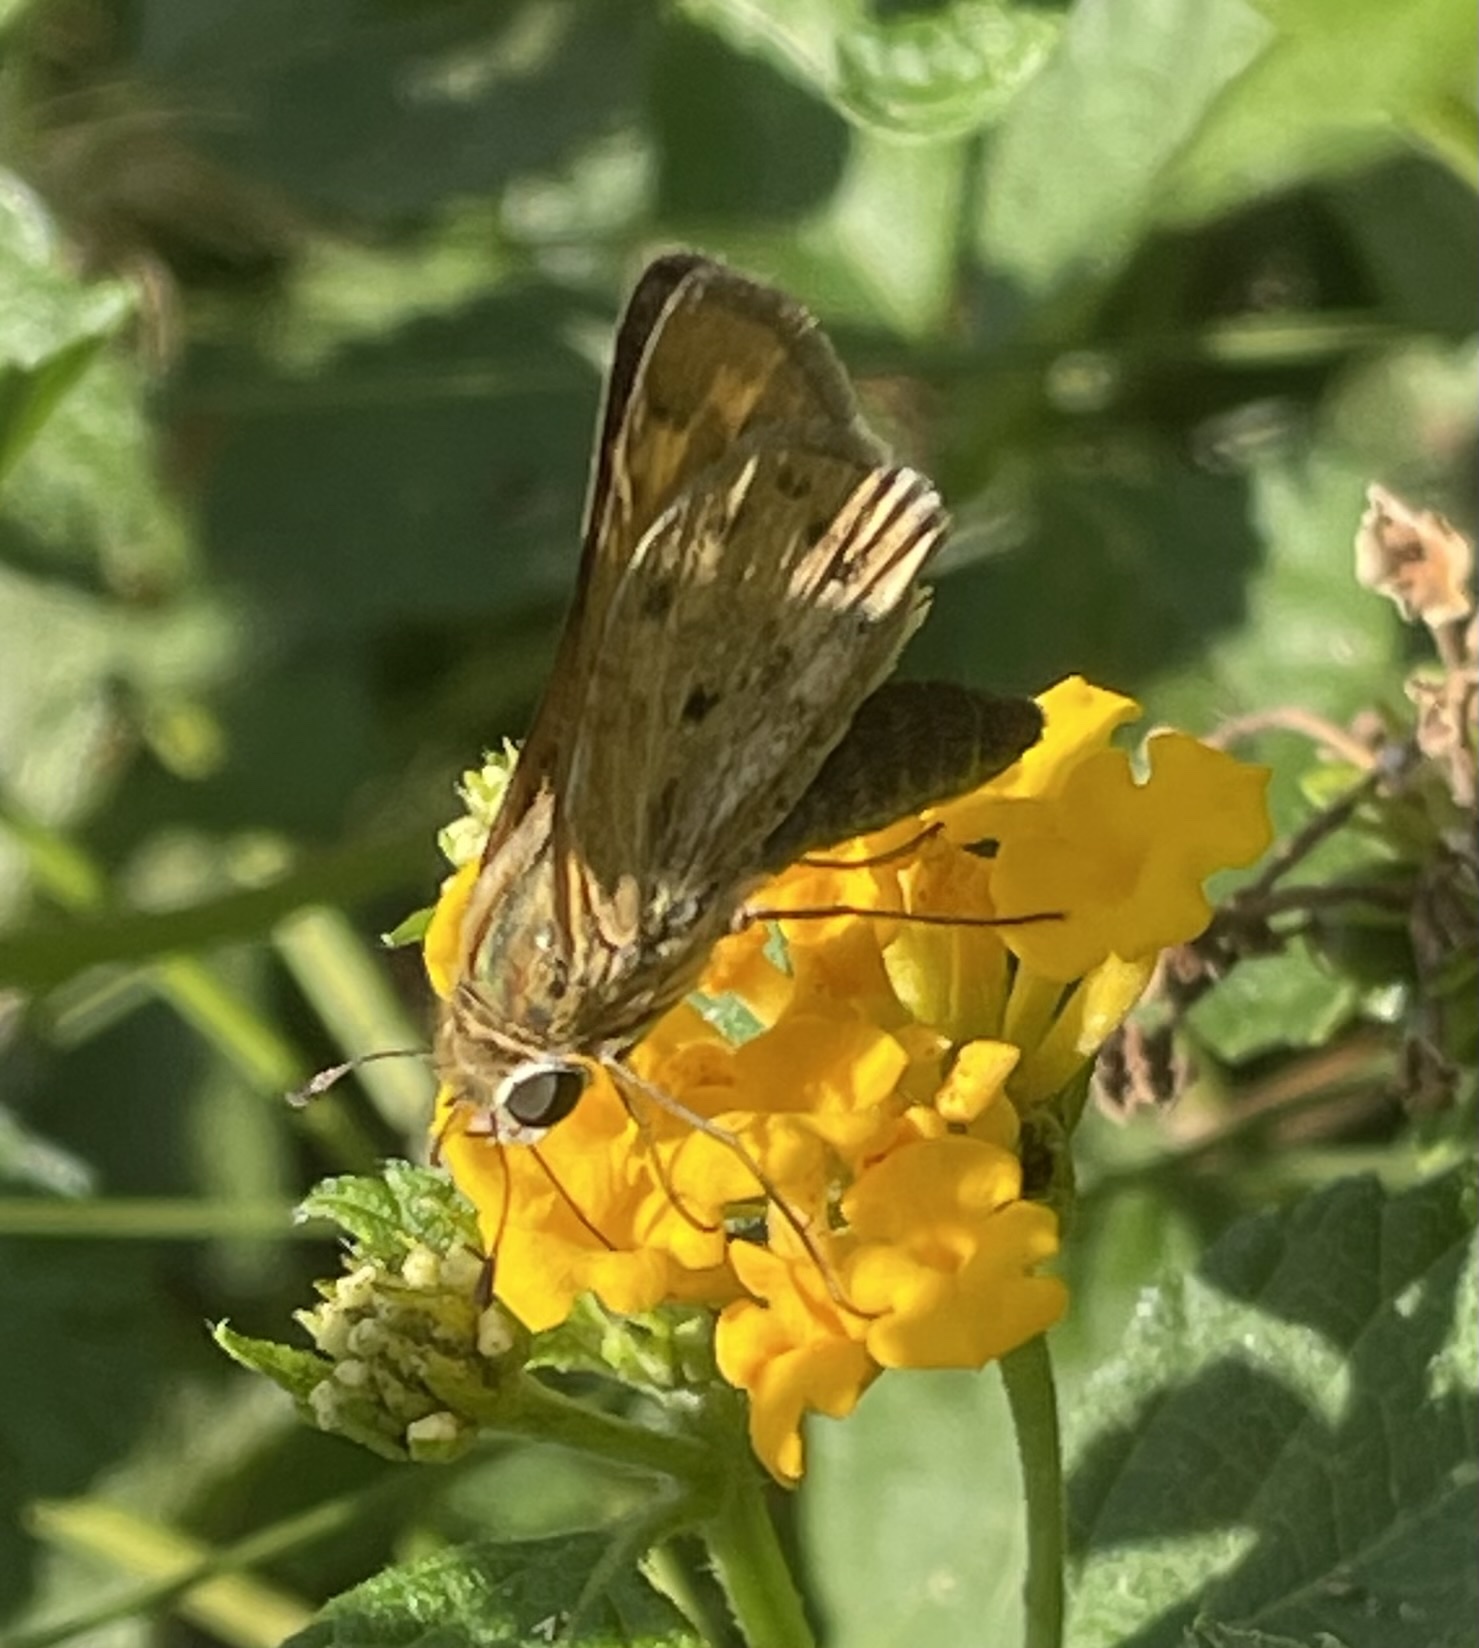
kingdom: Animalia
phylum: Arthropoda
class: Insecta
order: Lepidoptera
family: Hesperiidae
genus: Hylephila
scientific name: Hylephila phyleus
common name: Fiery skipper
